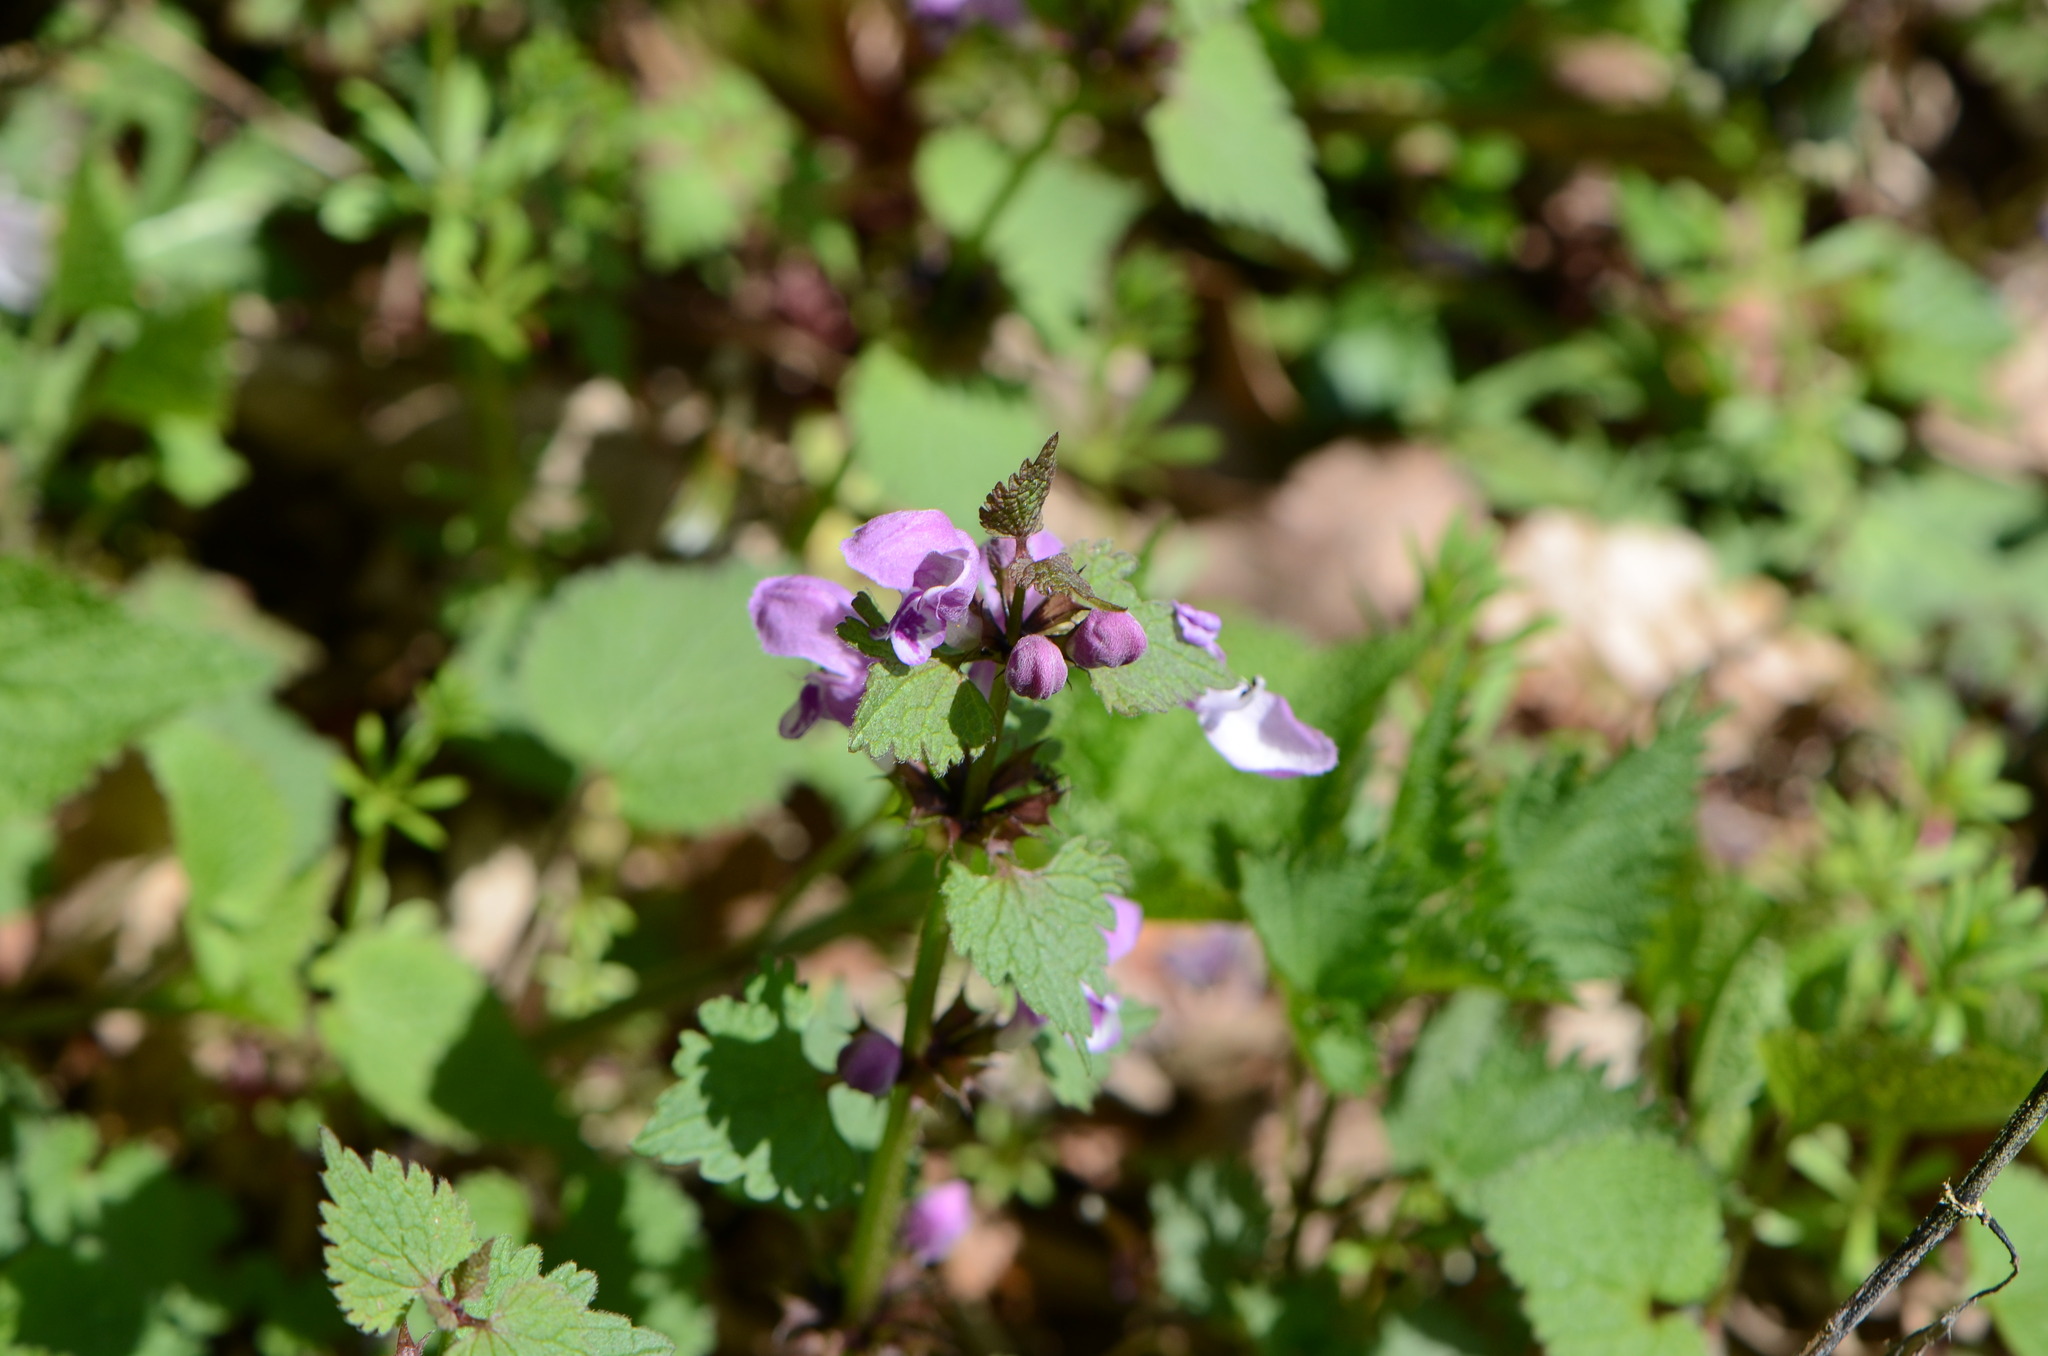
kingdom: Plantae
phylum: Tracheophyta
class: Magnoliopsida
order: Lamiales
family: Lamiaceae
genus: Lamium
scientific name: Lamium maculatum
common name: Spotted dead-nettle
